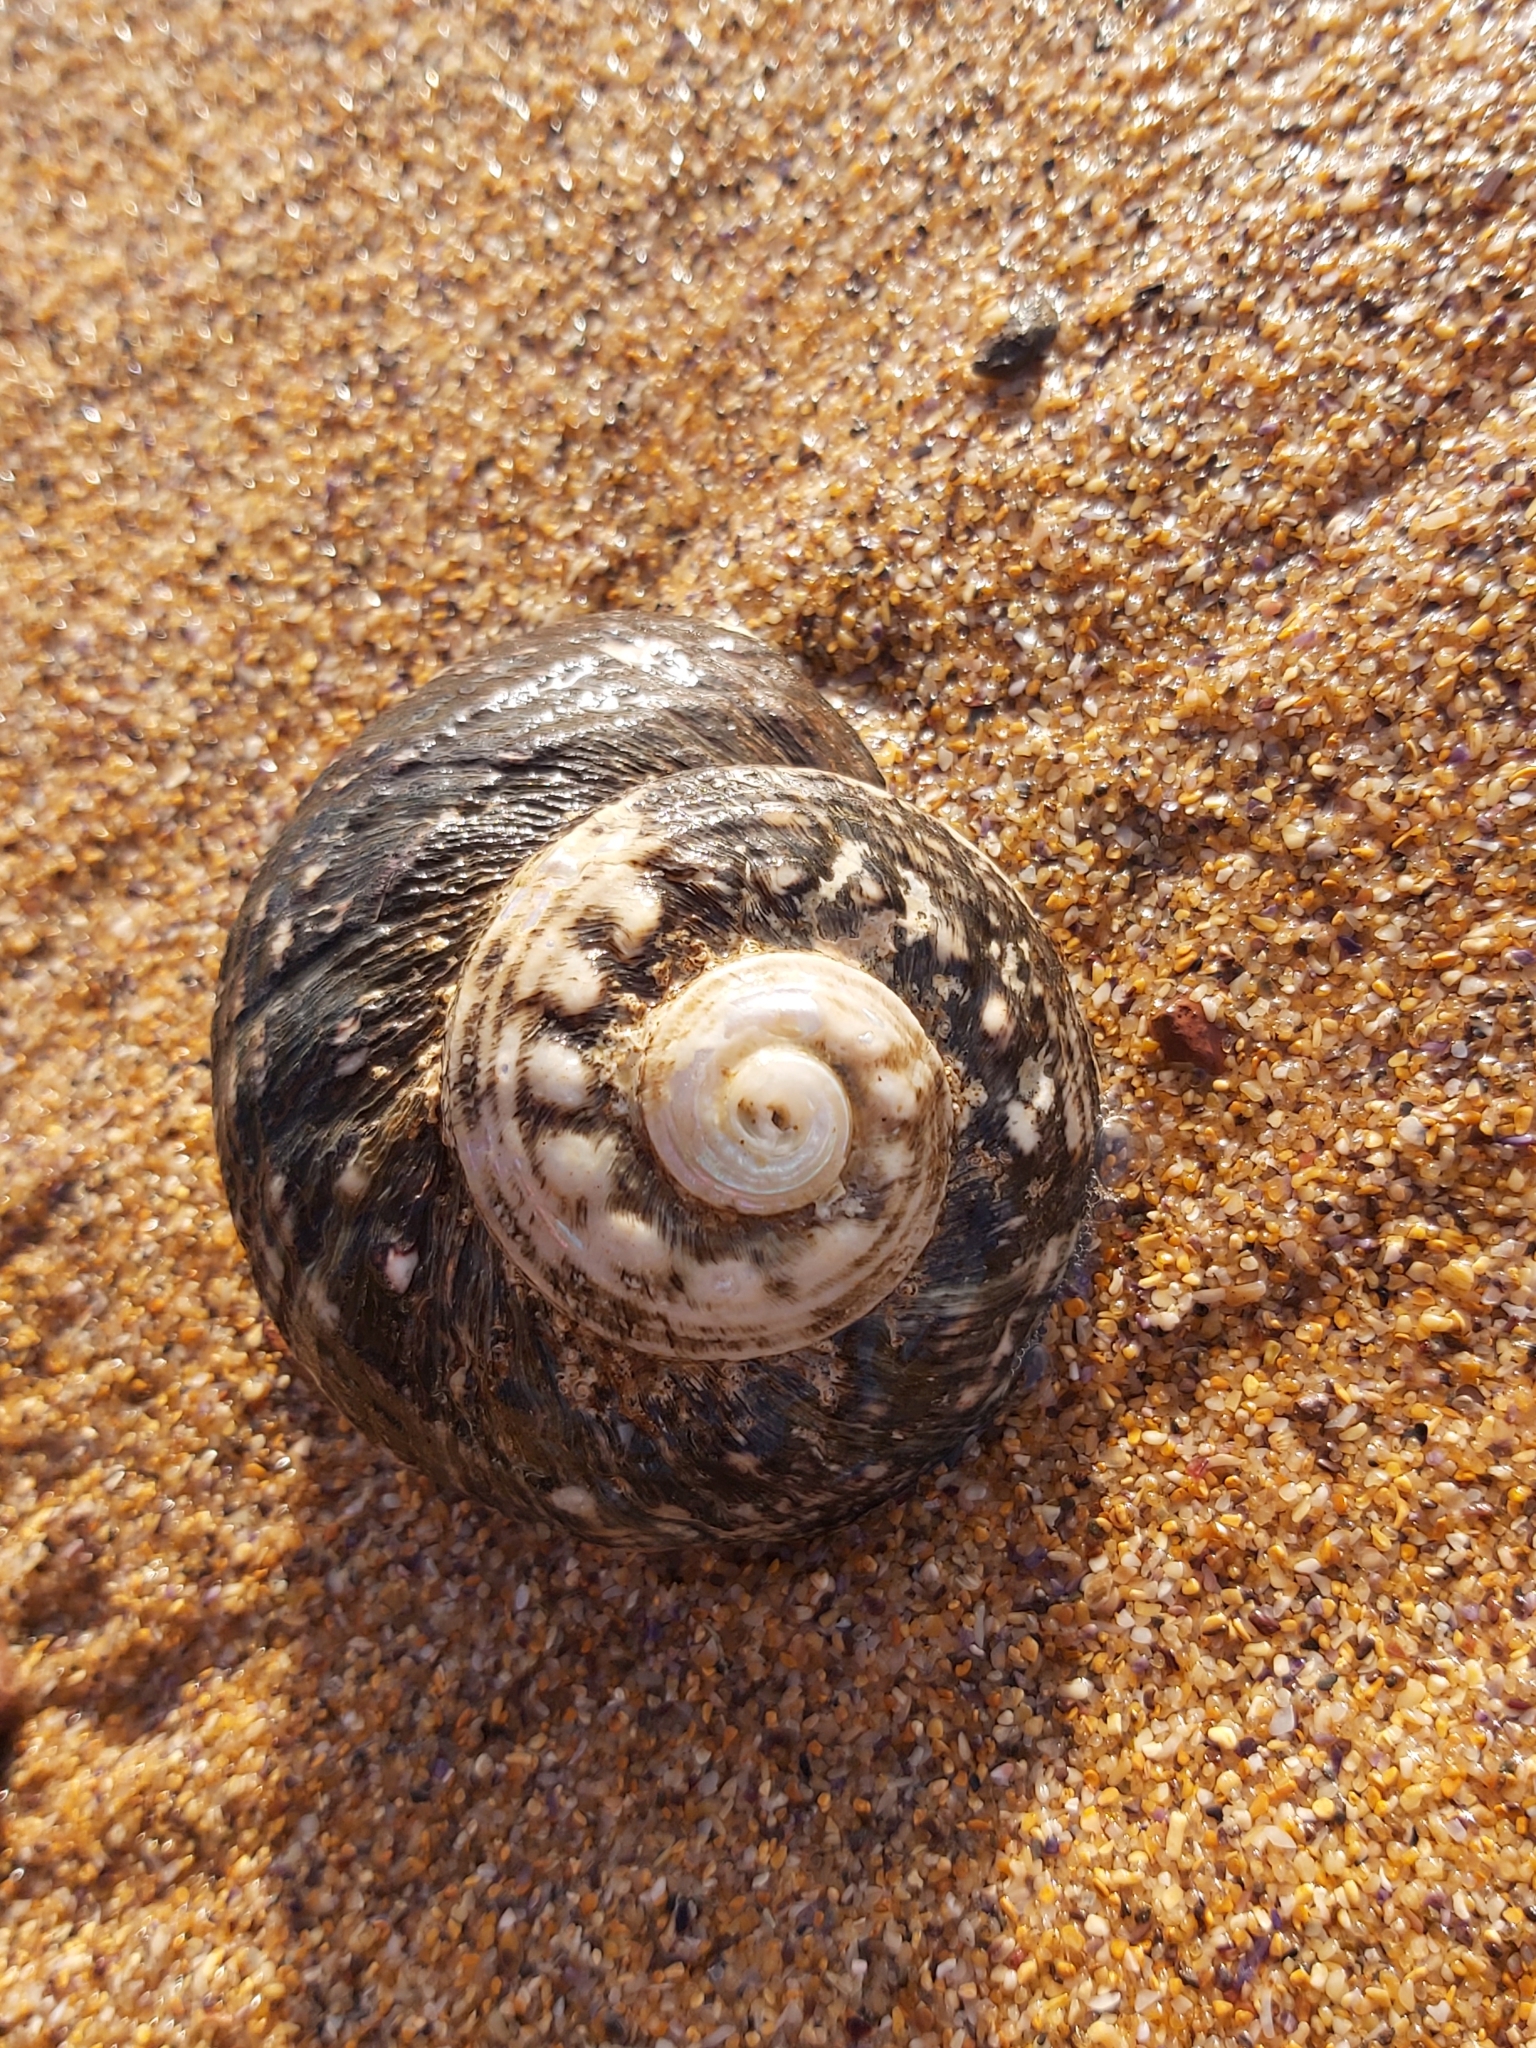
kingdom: Animalia
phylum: Mollusca
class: Gastropoda
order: Trochida
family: Turbinidae
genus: Lunella
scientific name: Lunella torquata
